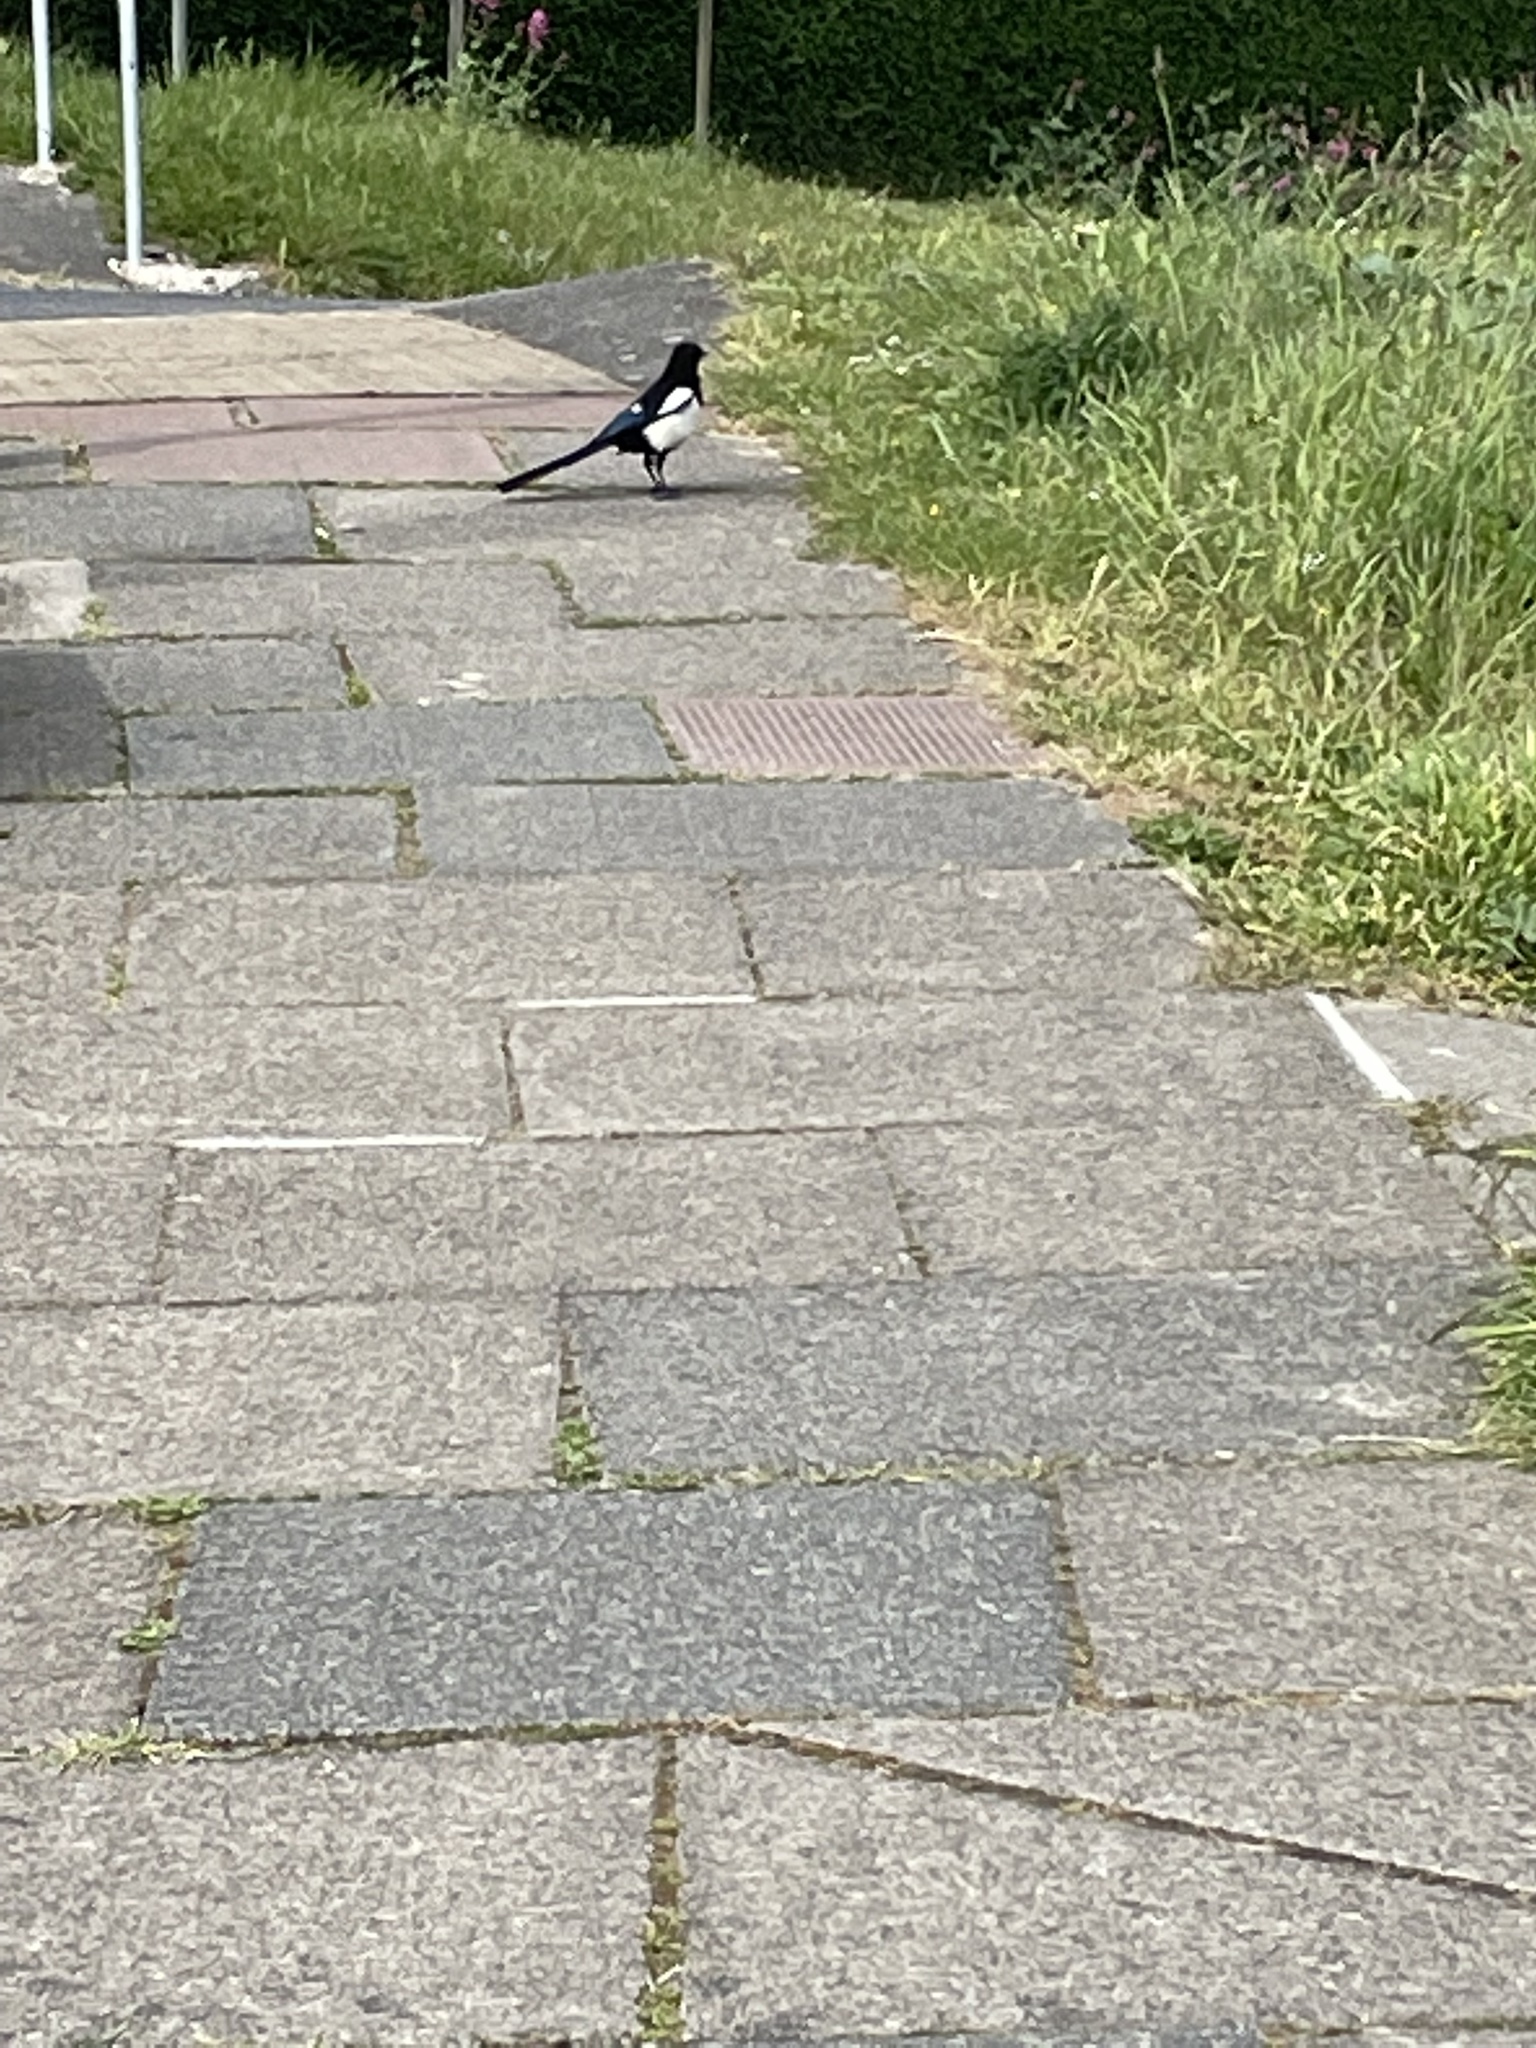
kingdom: Animalia
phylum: Chordata
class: Aves
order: Passeriformes
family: Corvidae
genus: Pica
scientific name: Pica pica
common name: Eurasian magpie
